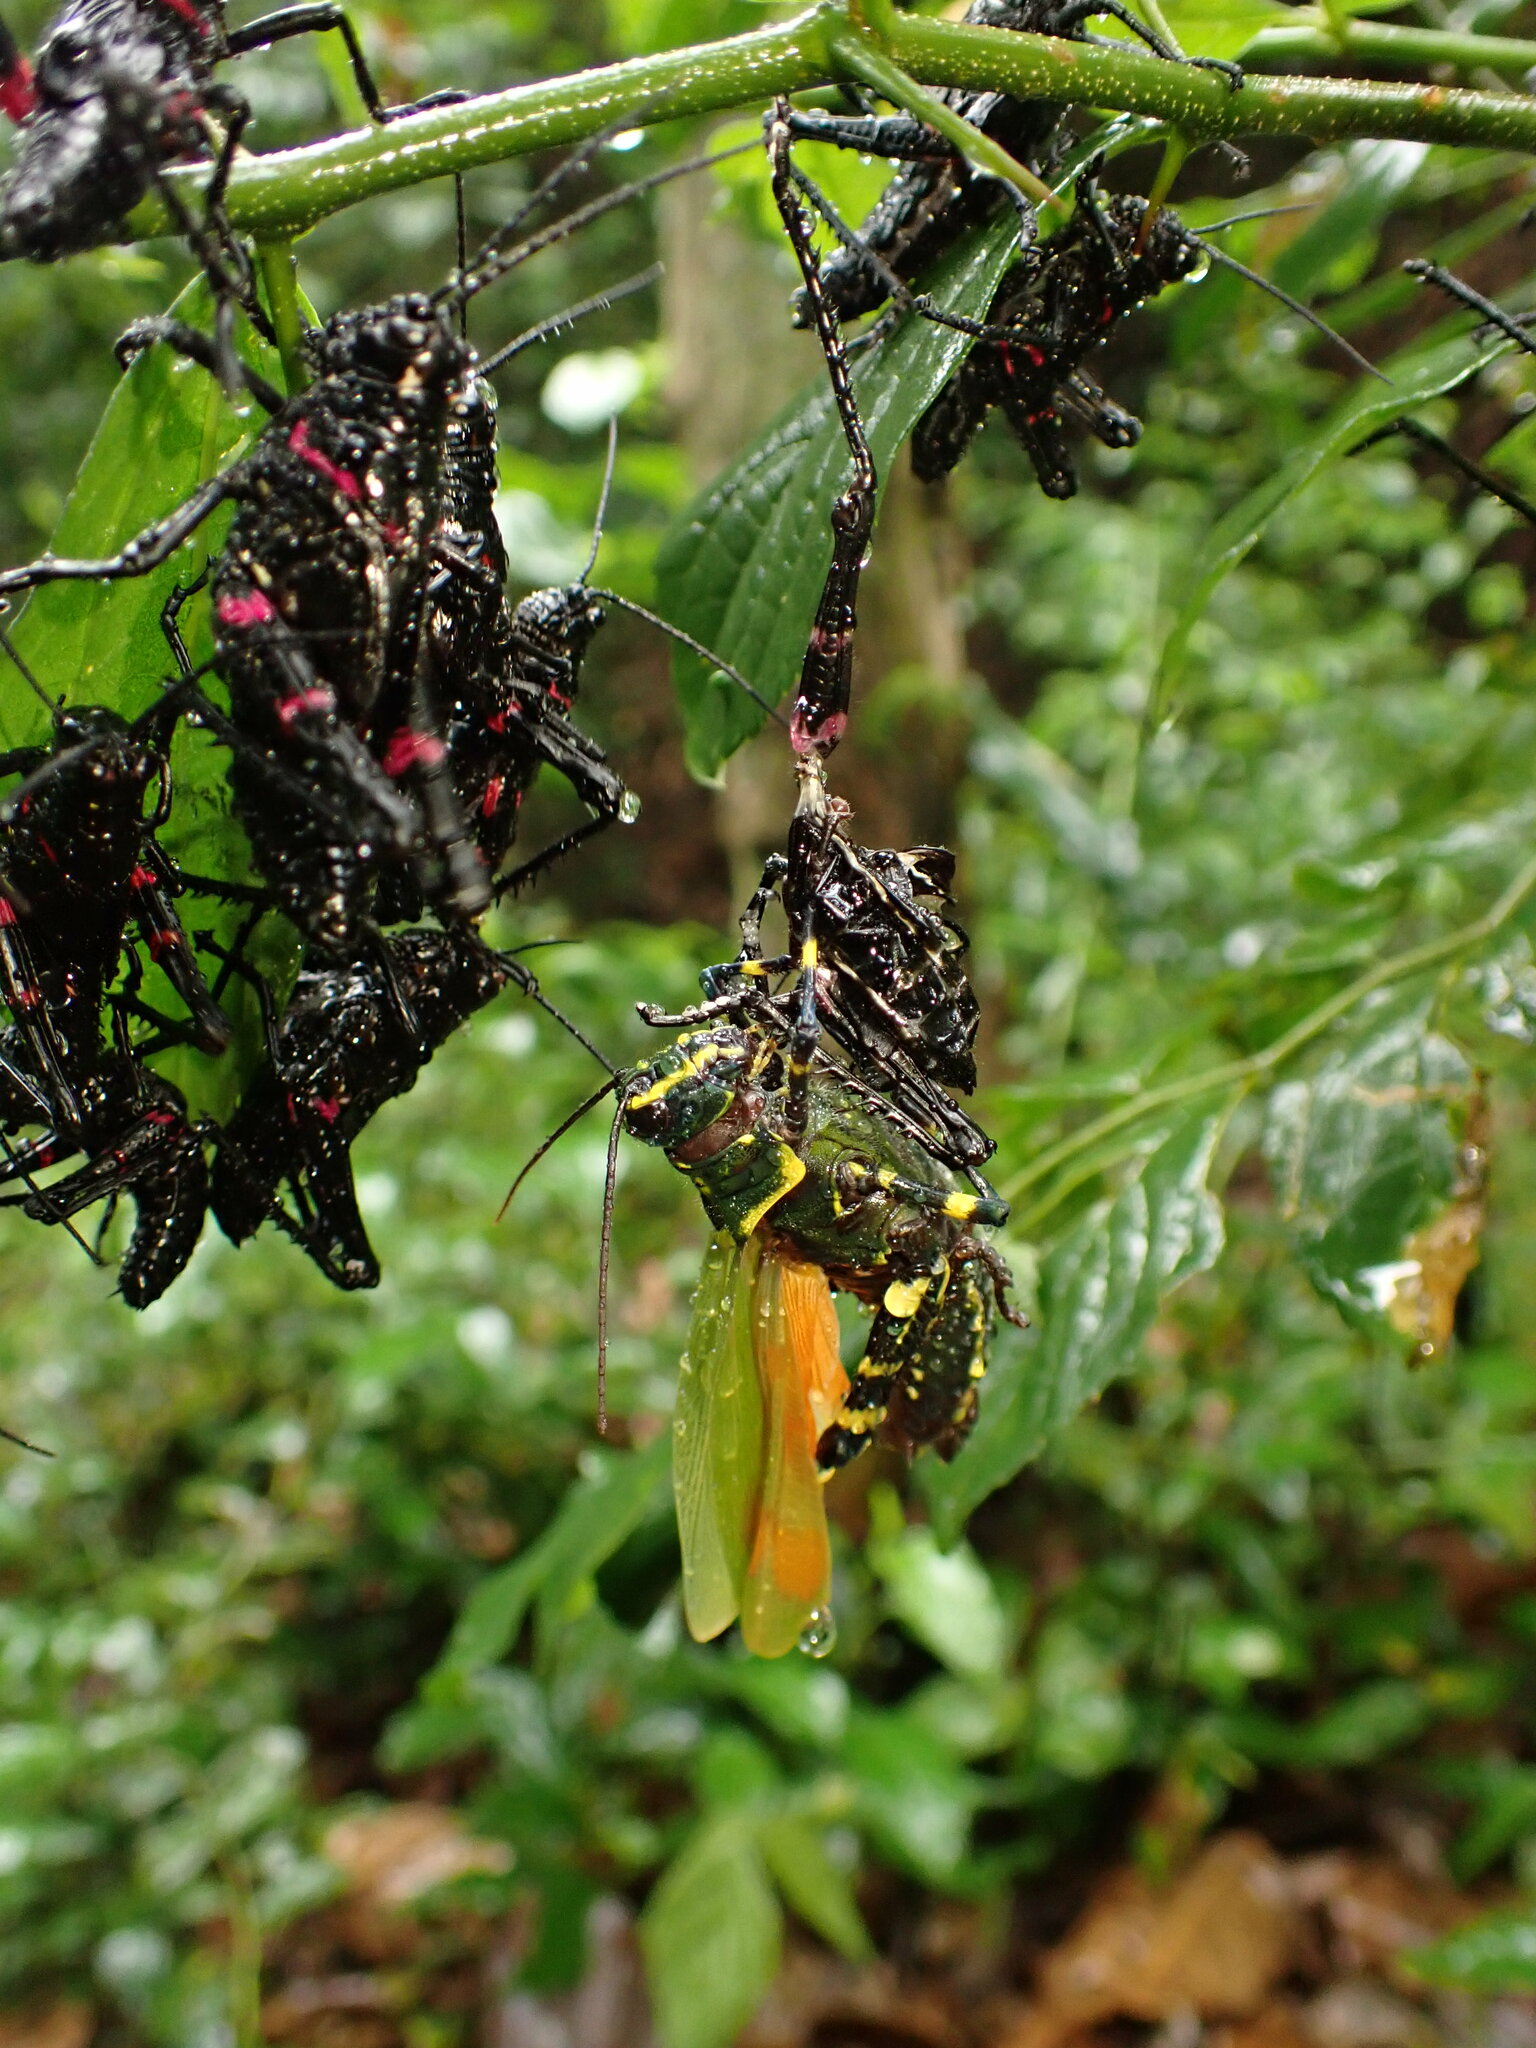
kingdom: Animalia
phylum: Arthropoda
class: Insecta
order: Orthoptera
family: Romaleidae
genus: Chromacris
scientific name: Chromacris speciosa
